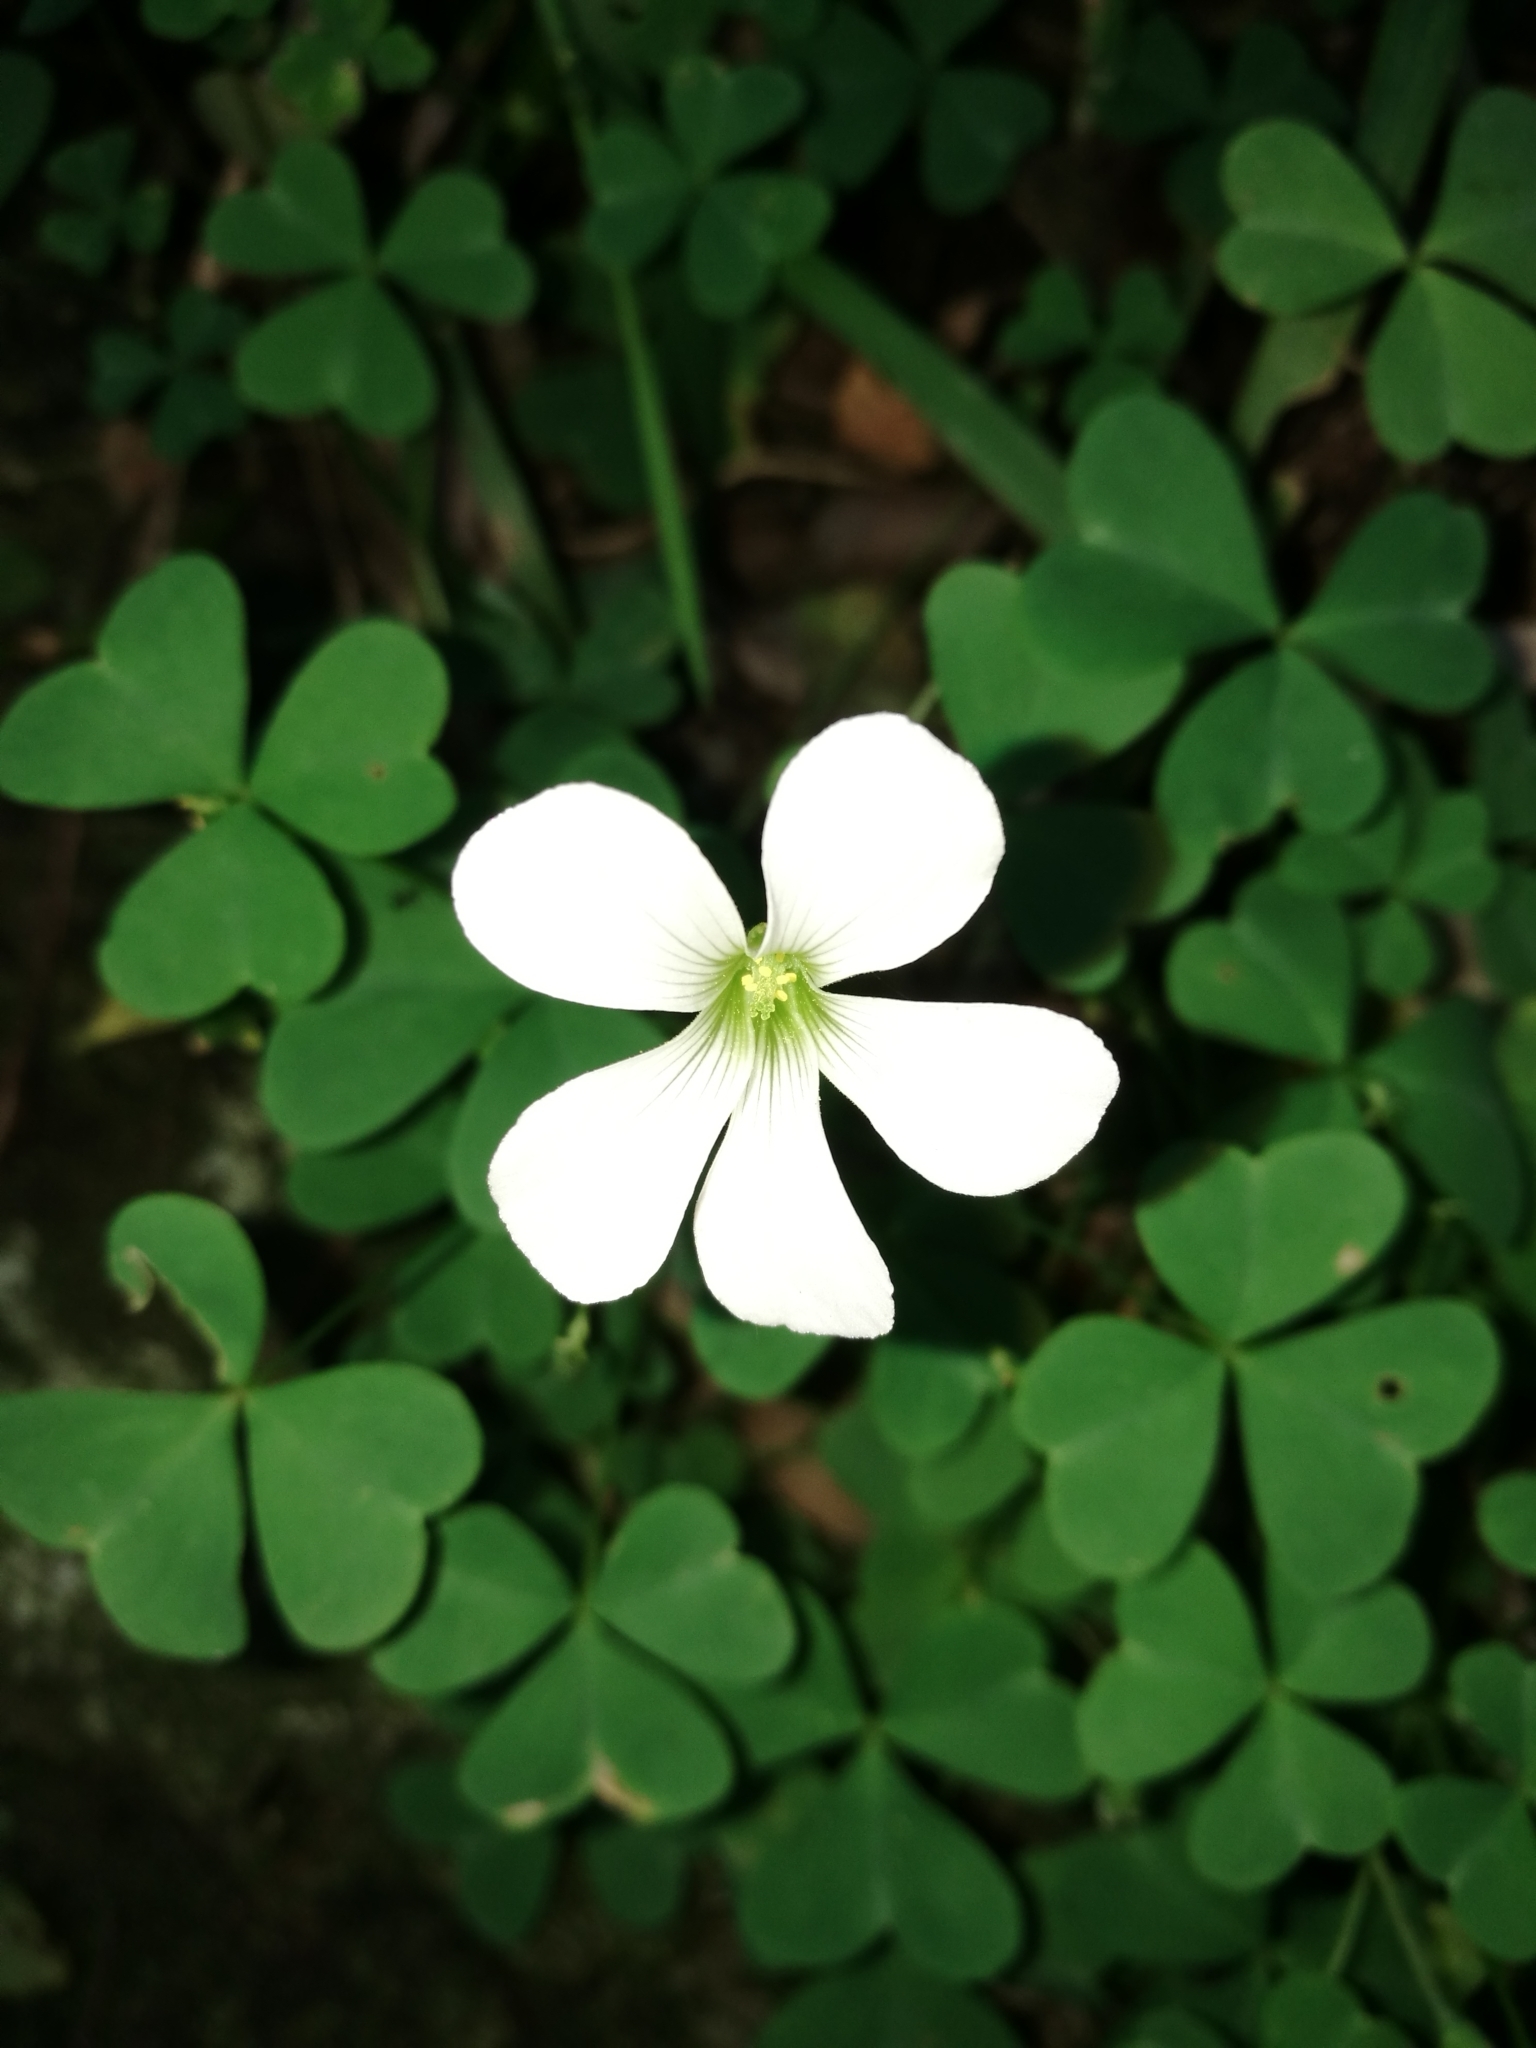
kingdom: Plantae
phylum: Tracheophyta
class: Magnoliopsida
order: Oxalidales
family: Oxalidaceae
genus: Oxalis
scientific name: Oxalis incarnata
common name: Pale pink-sorrel
